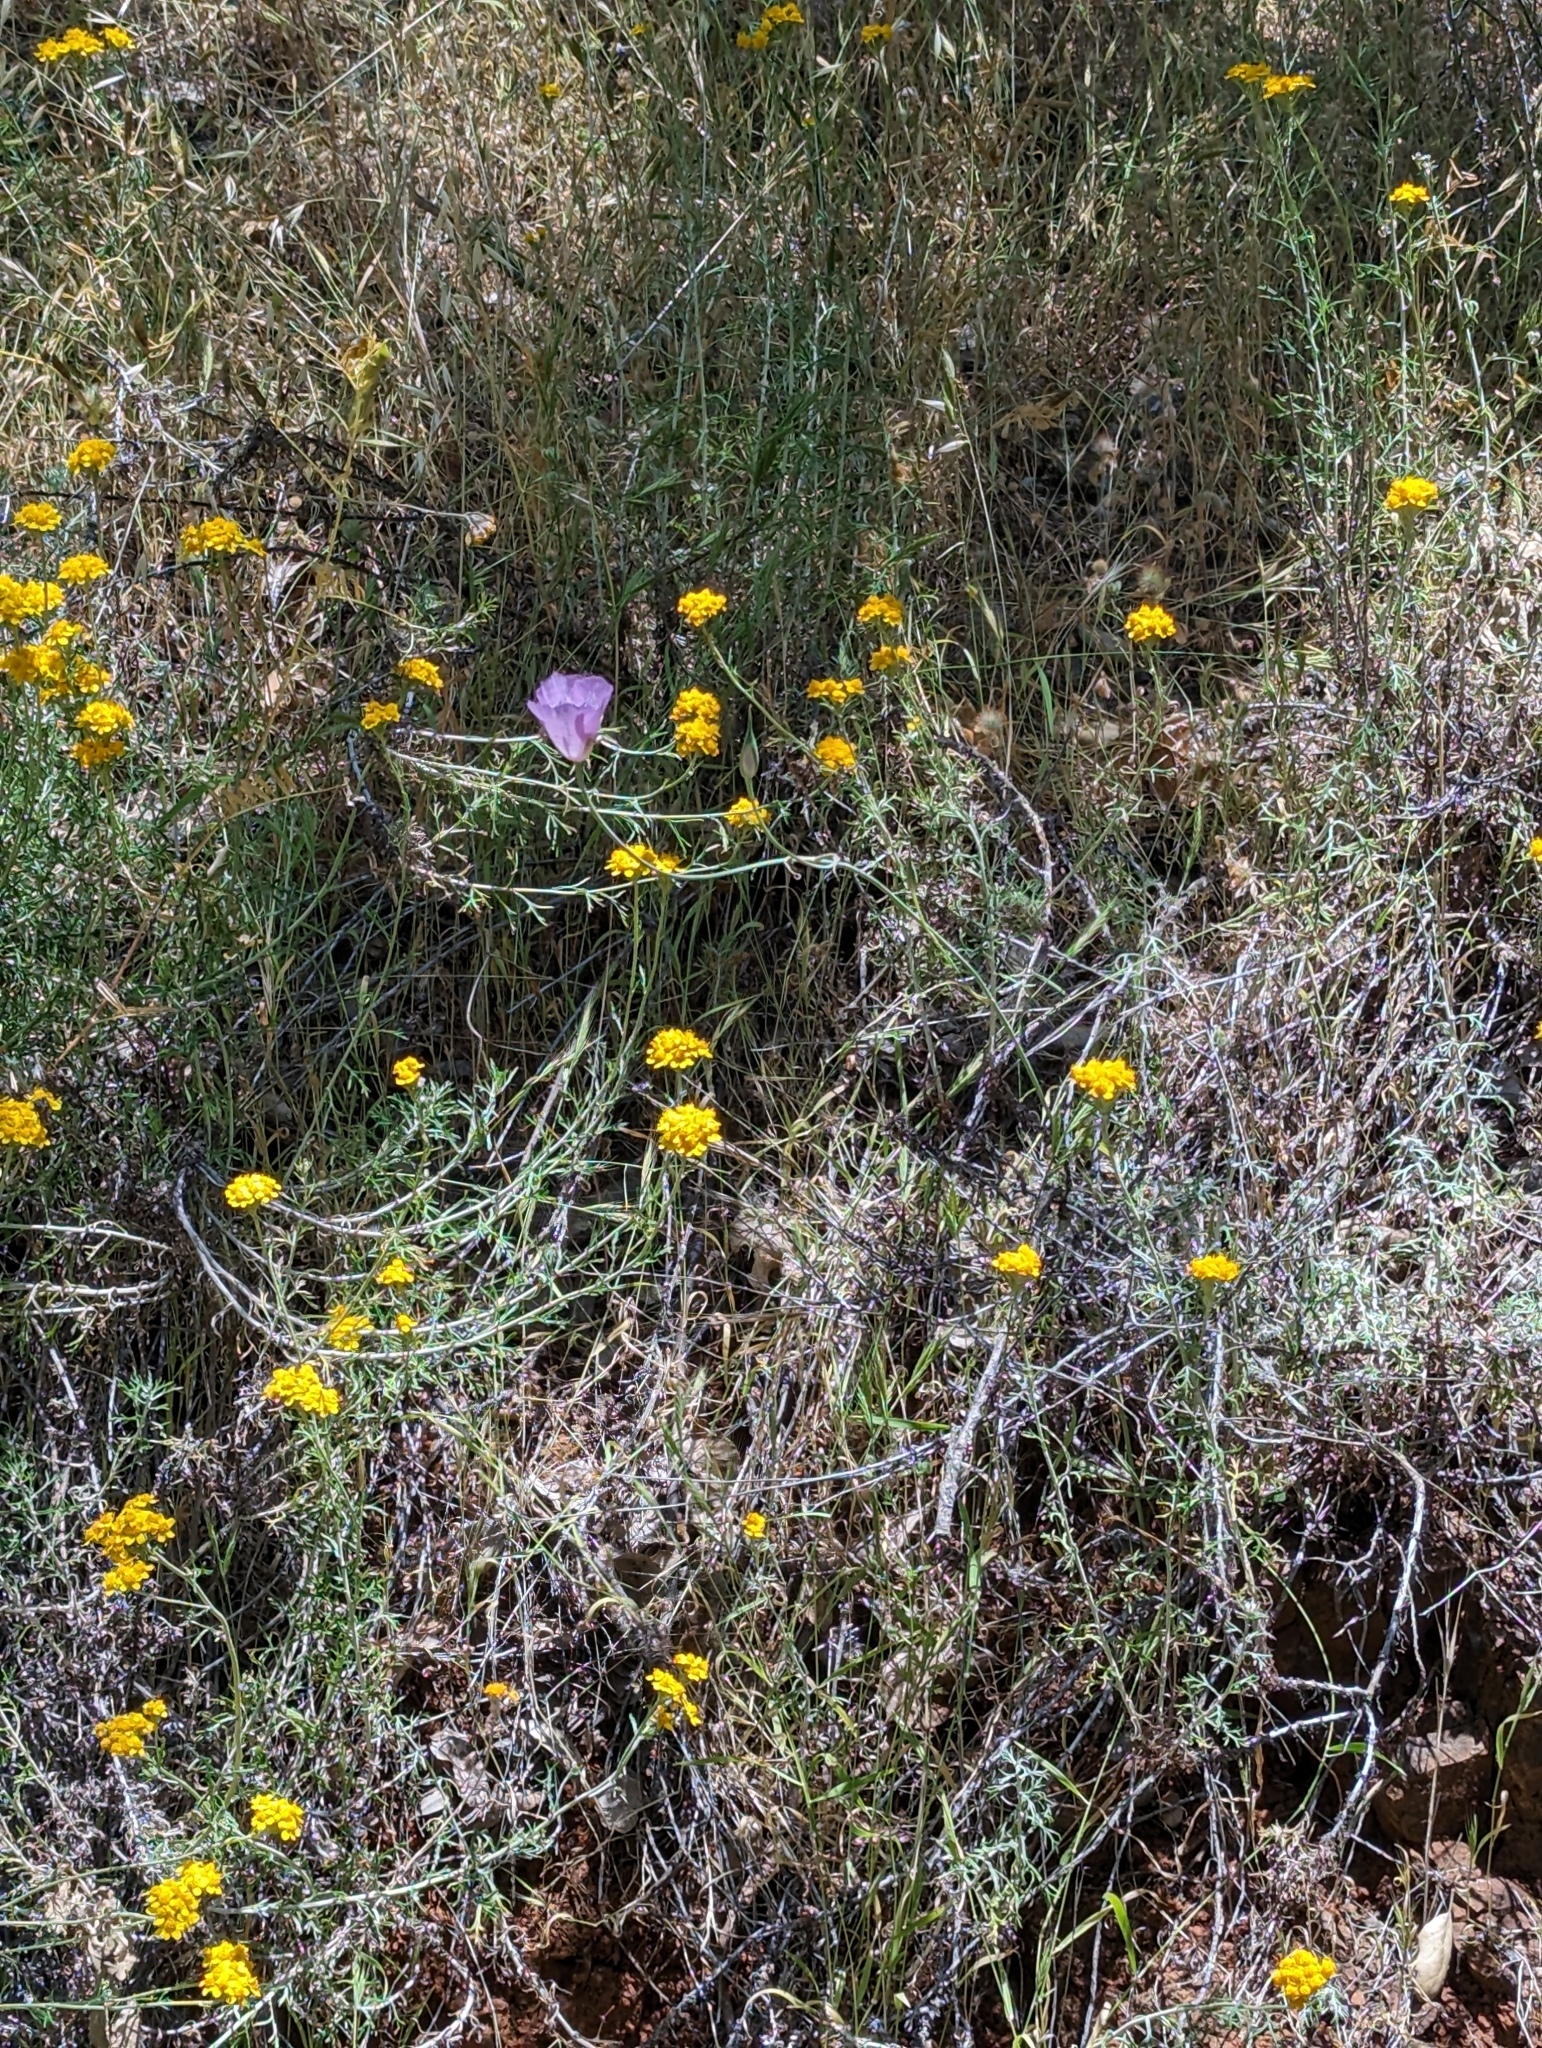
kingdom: Plantae
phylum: Tracheophyta
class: Liliopsida
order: Liliales
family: Liliaceae
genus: Calochortus
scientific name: Calochortus splendens
